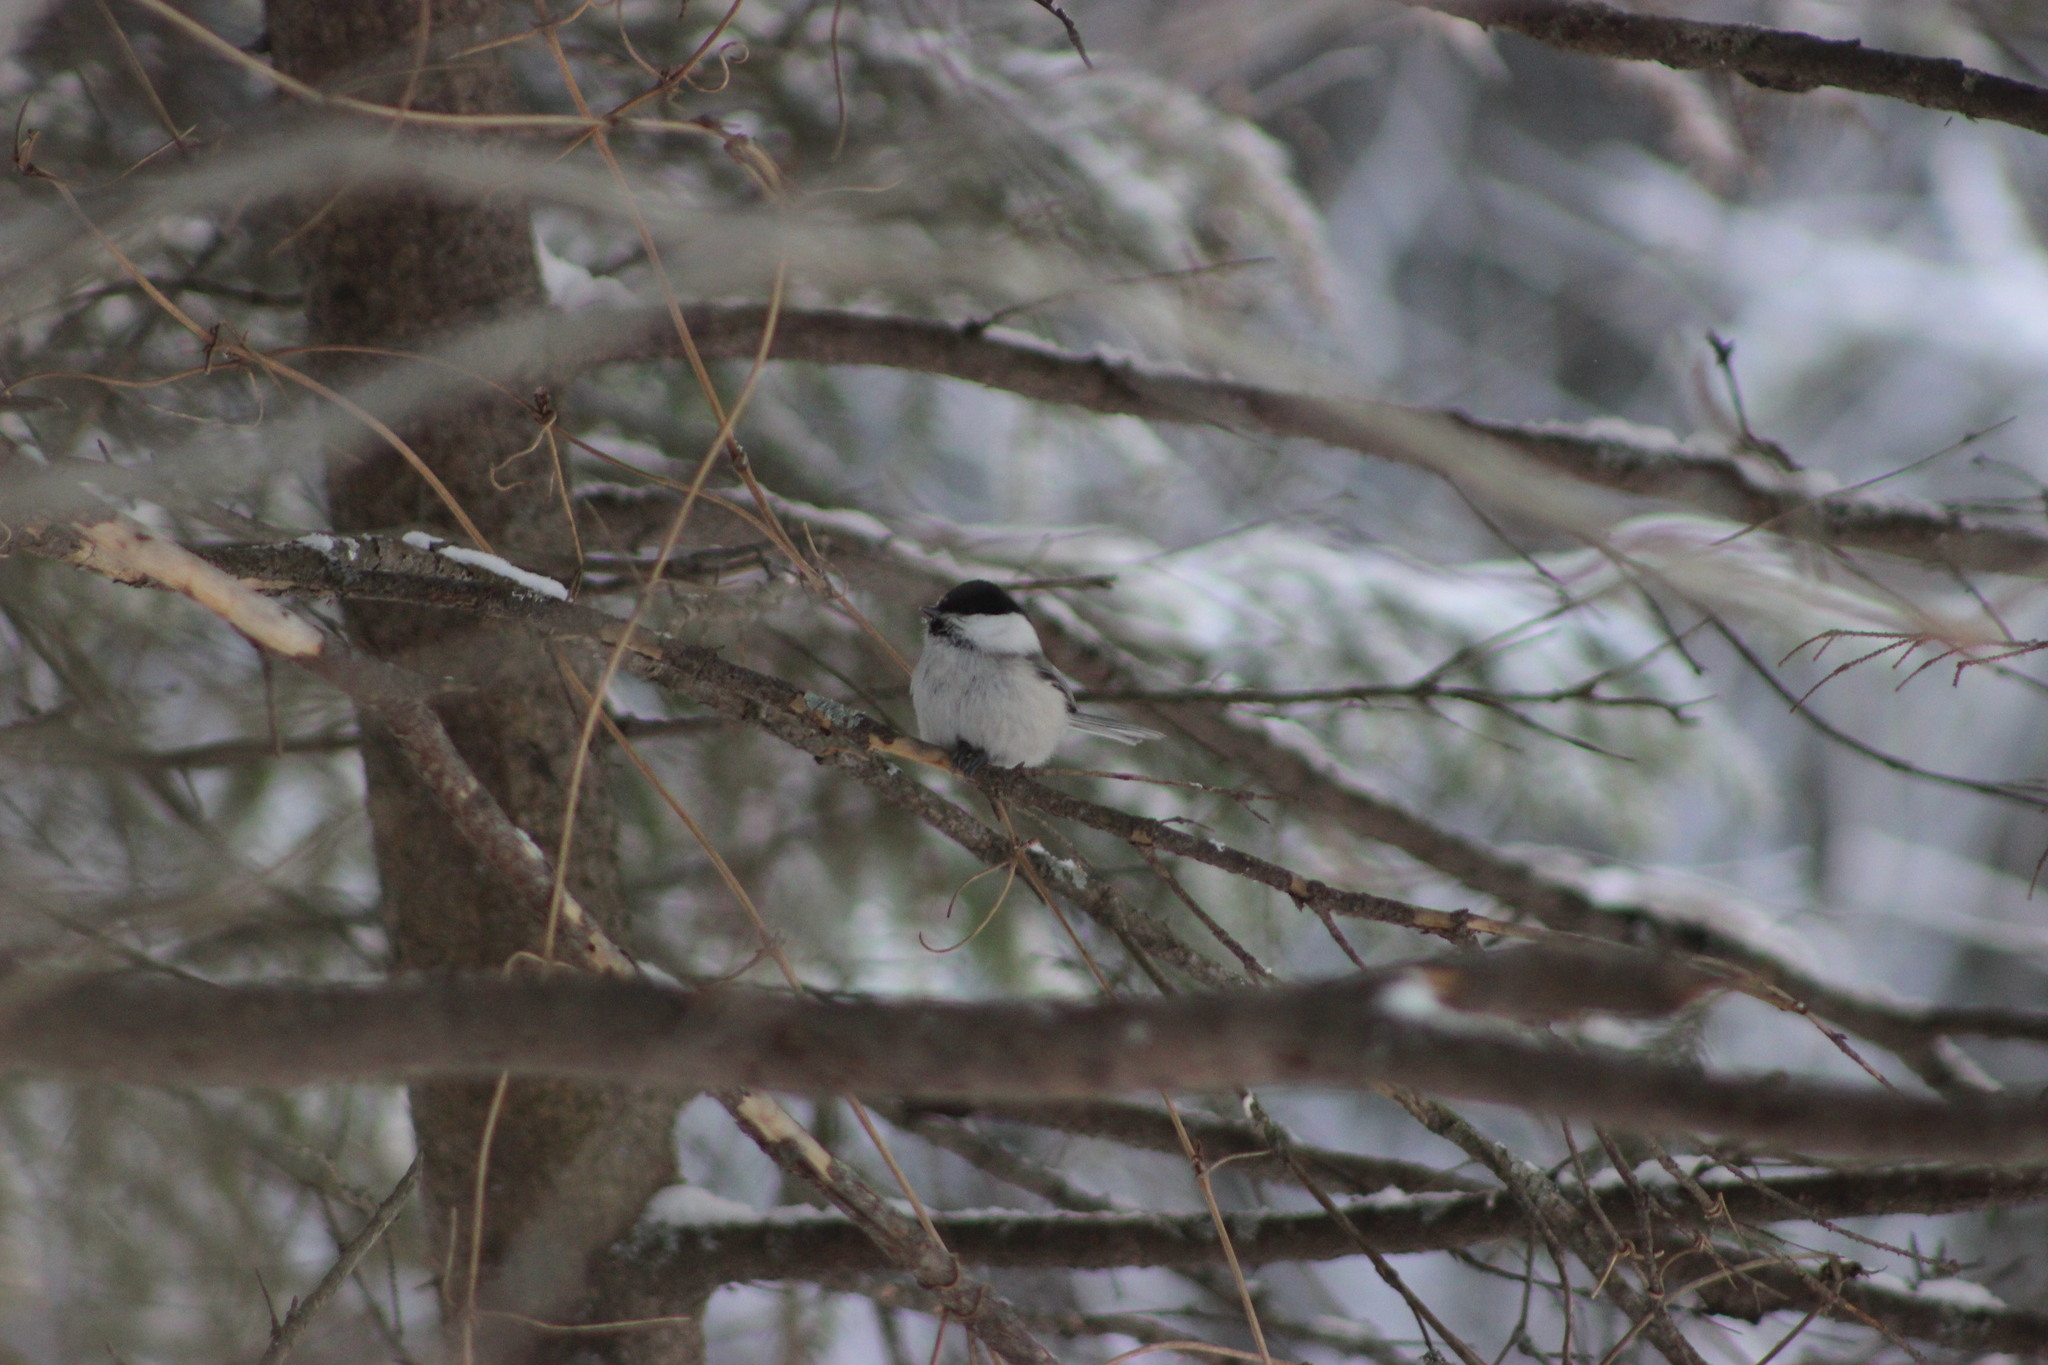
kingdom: Animalia
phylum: Chordata
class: Aves
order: Passeriformes
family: Paridae
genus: Poecile
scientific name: Poecile montanus
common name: Willow tit
